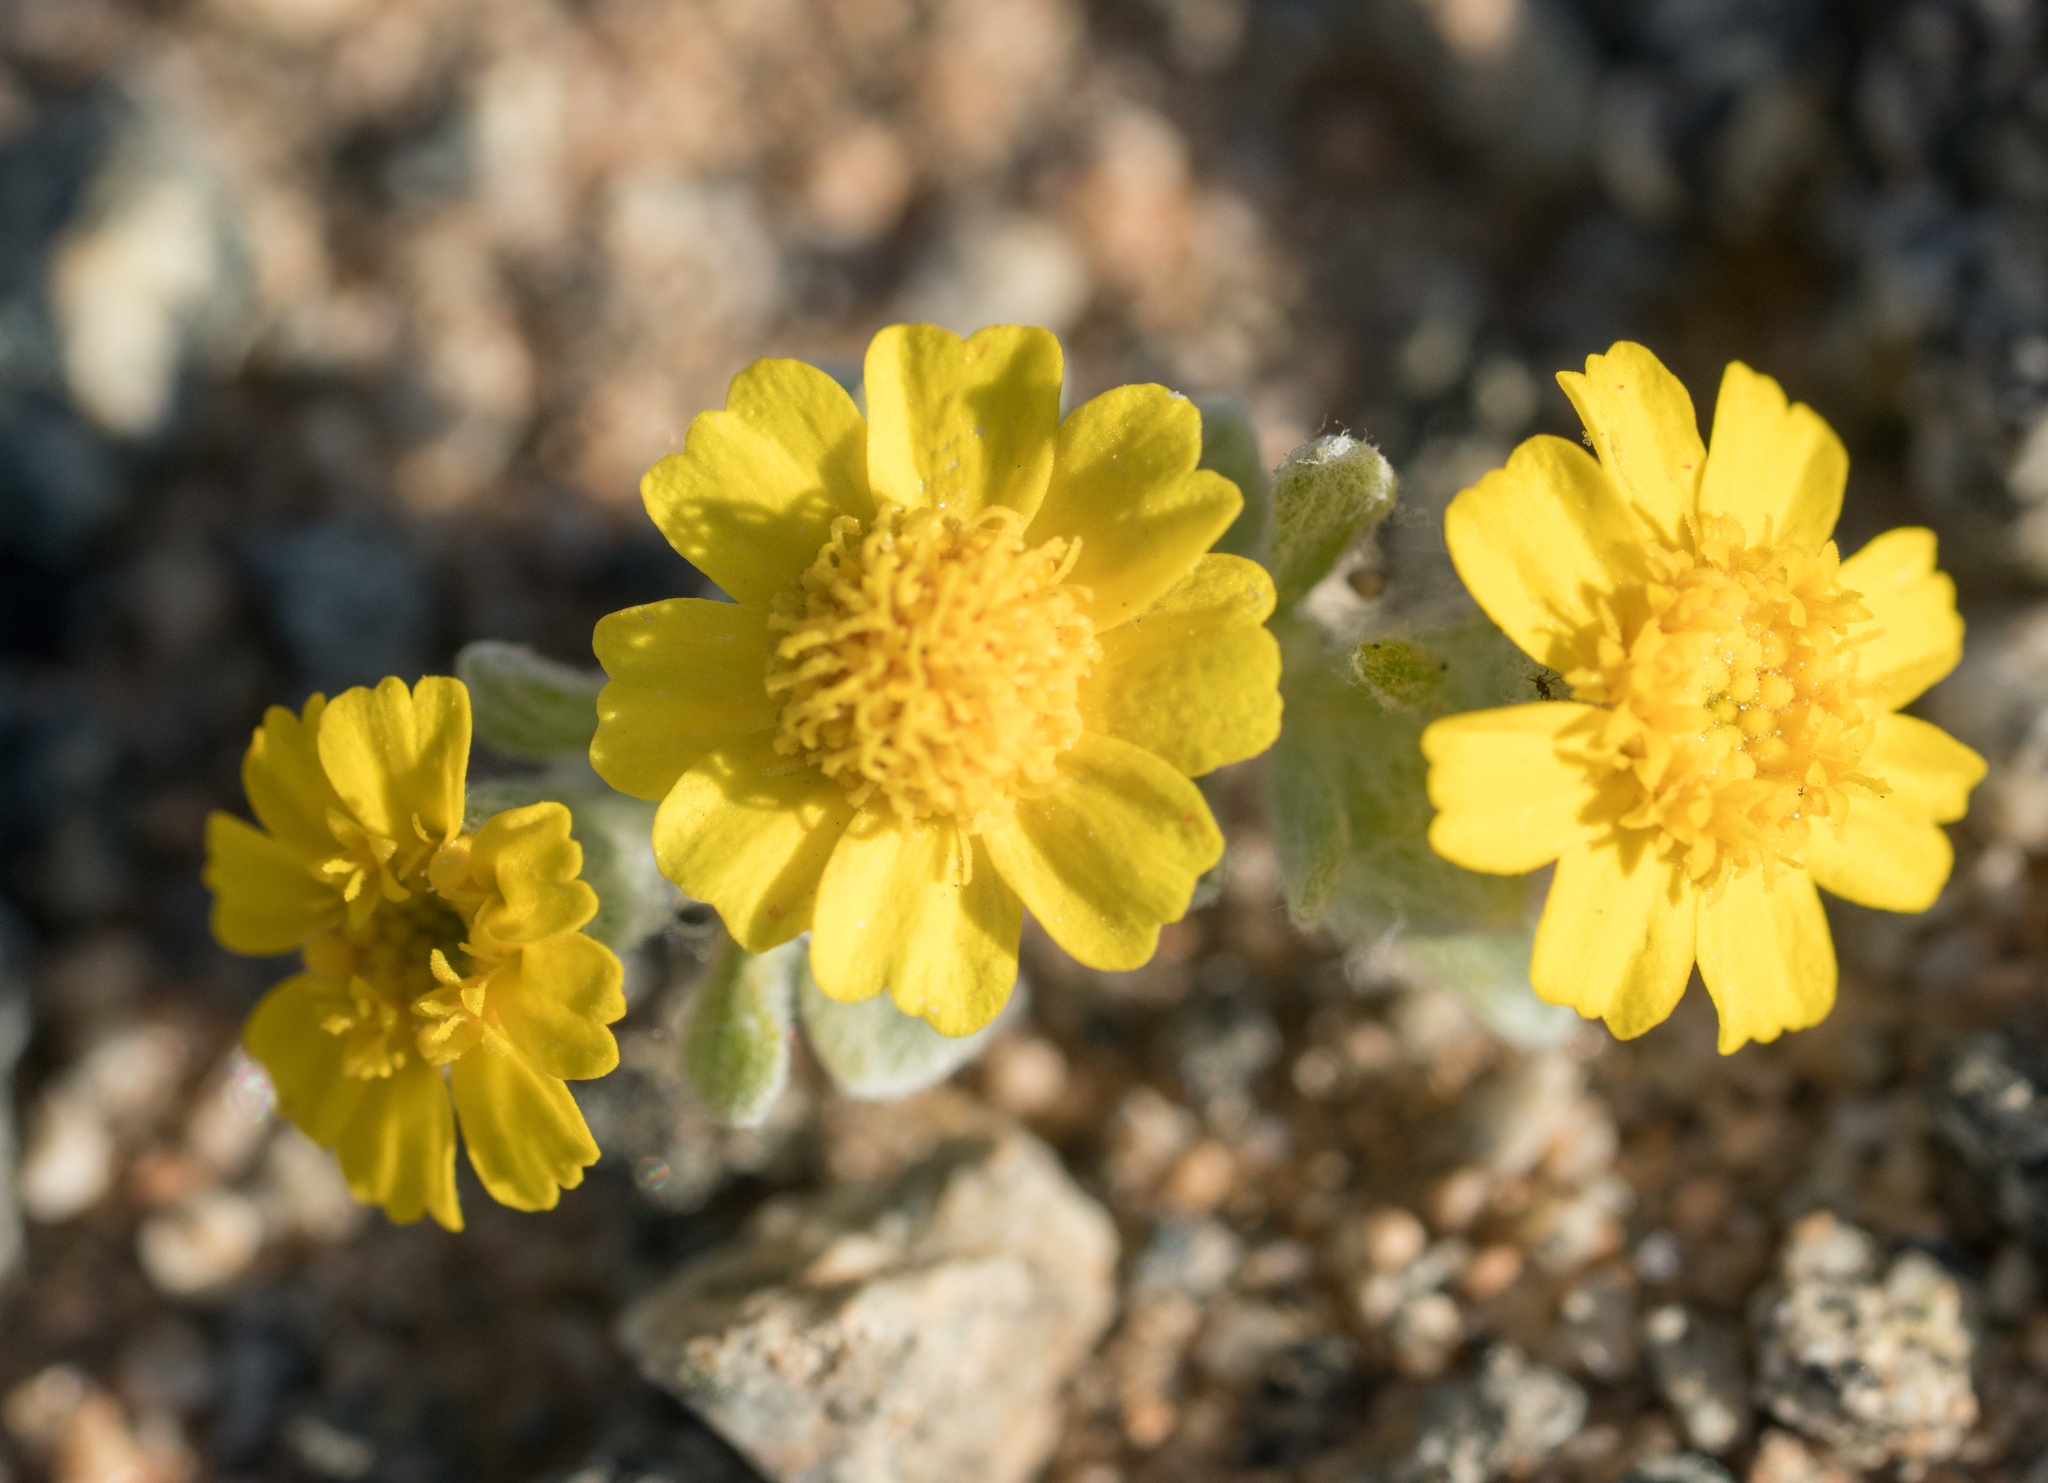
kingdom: Plantae
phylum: Tracheophyta
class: Magnoliopsida
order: Asterales
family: Asteraceae
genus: Eriophyllum
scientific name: Eriophyllum wallacei
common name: Wallace's woolly daisy
